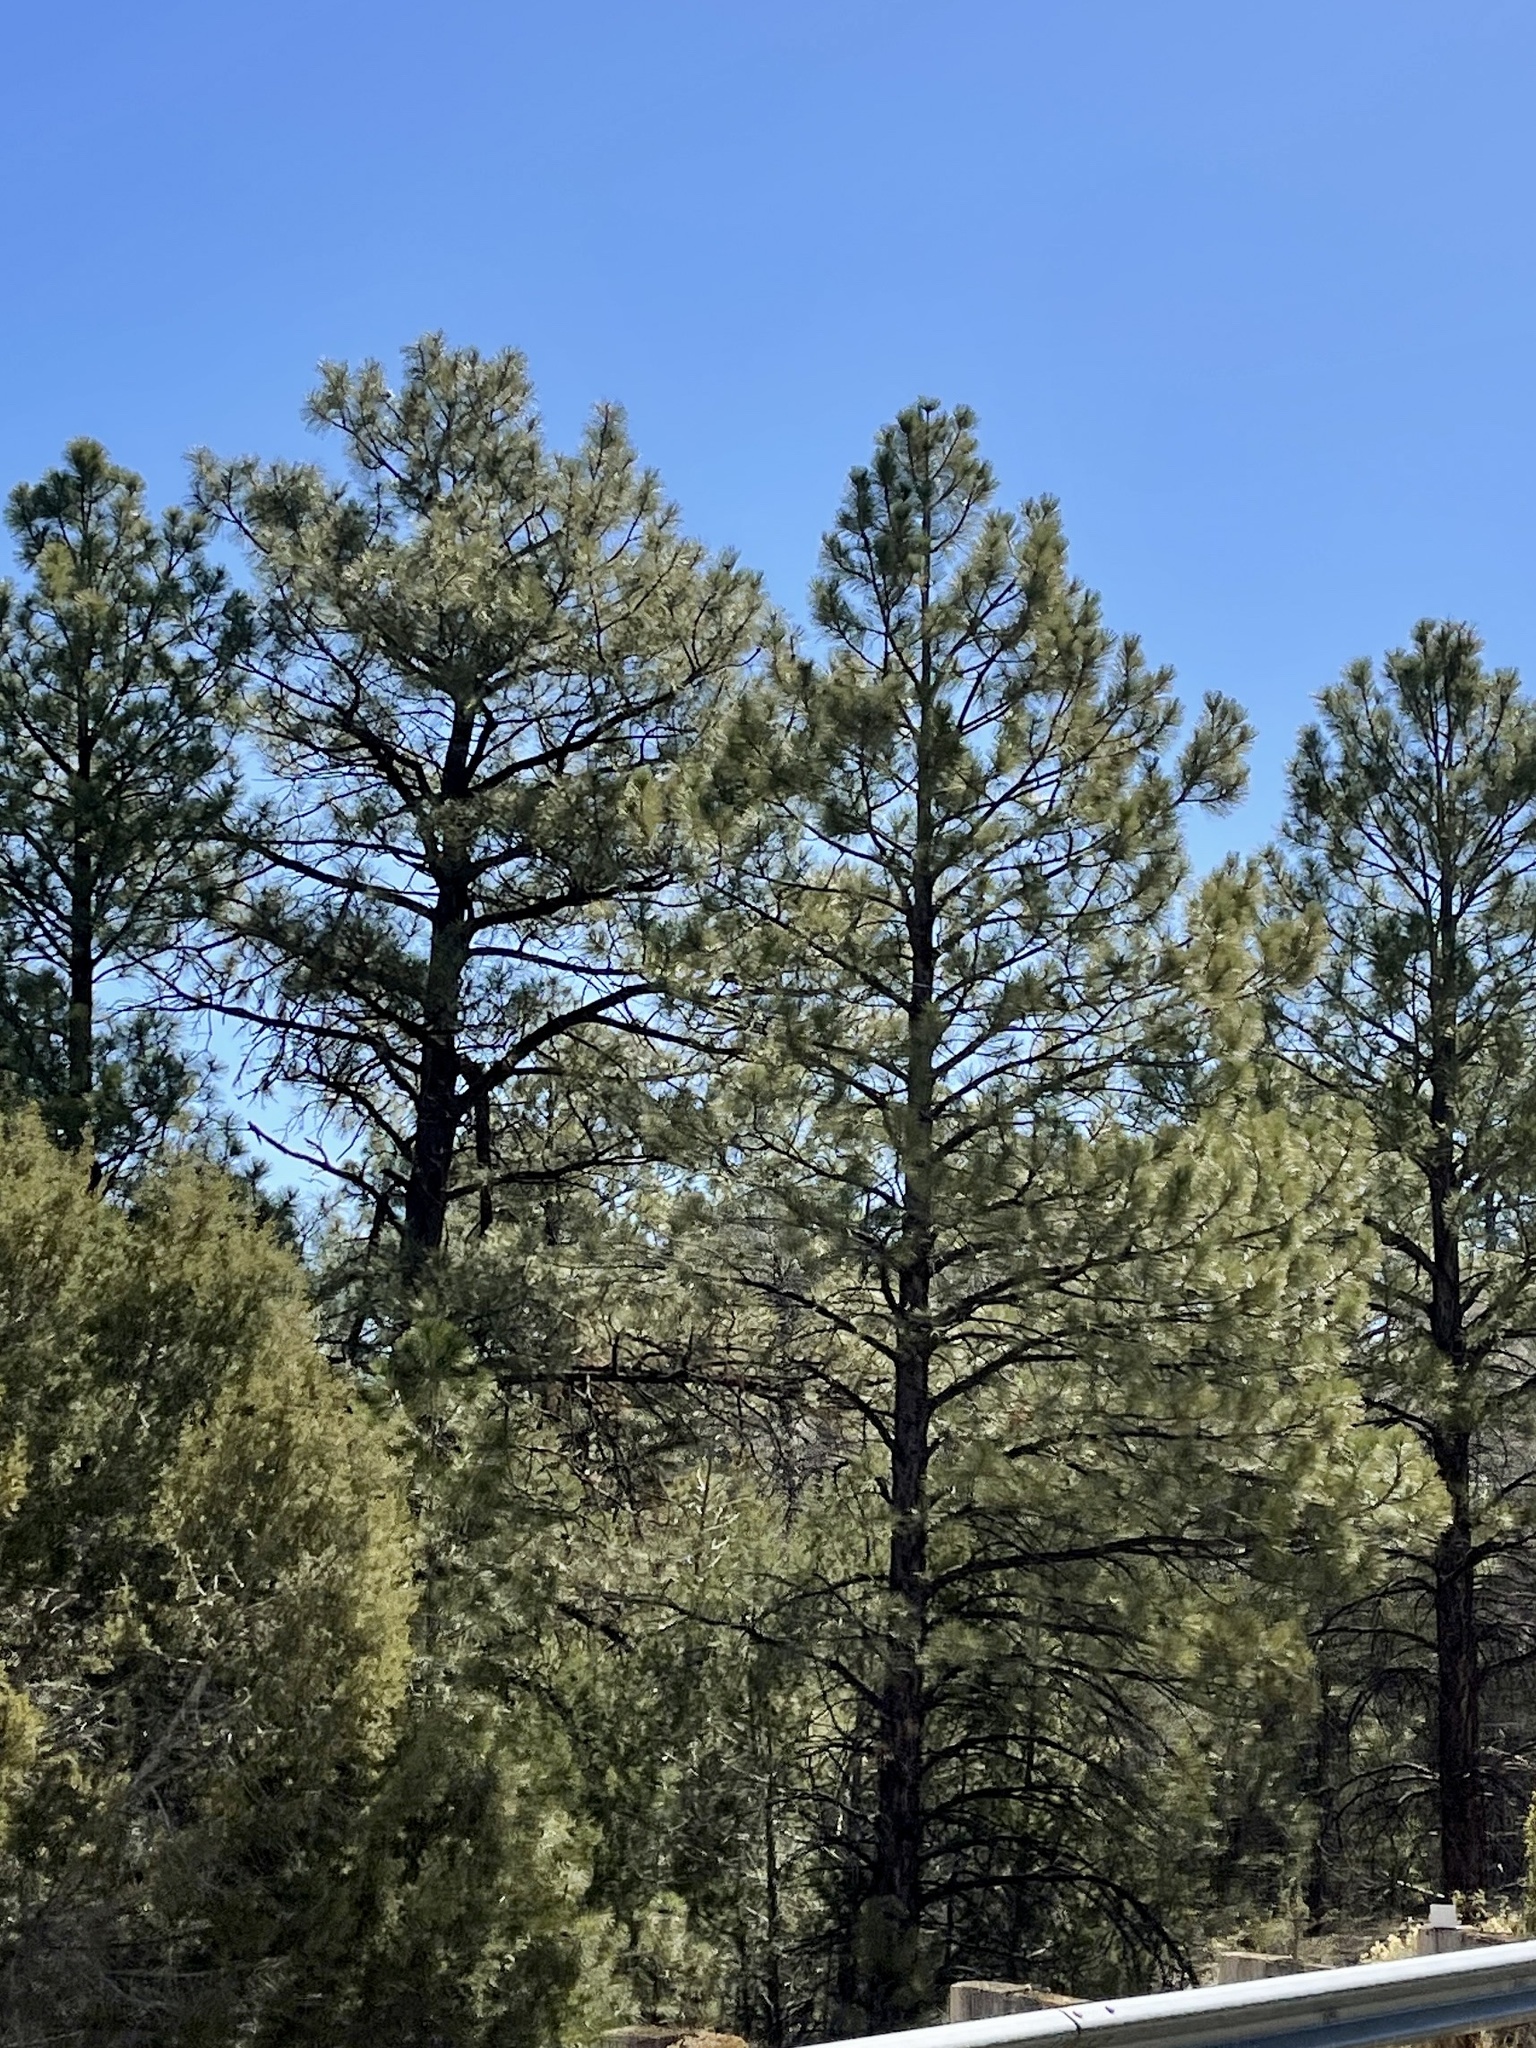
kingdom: Plantae
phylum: Tracheophyta
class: Pinopsida
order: Pinales
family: Pinaceae
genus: Pinus
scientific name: Pinus ponderosa
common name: Western yellow-pine
